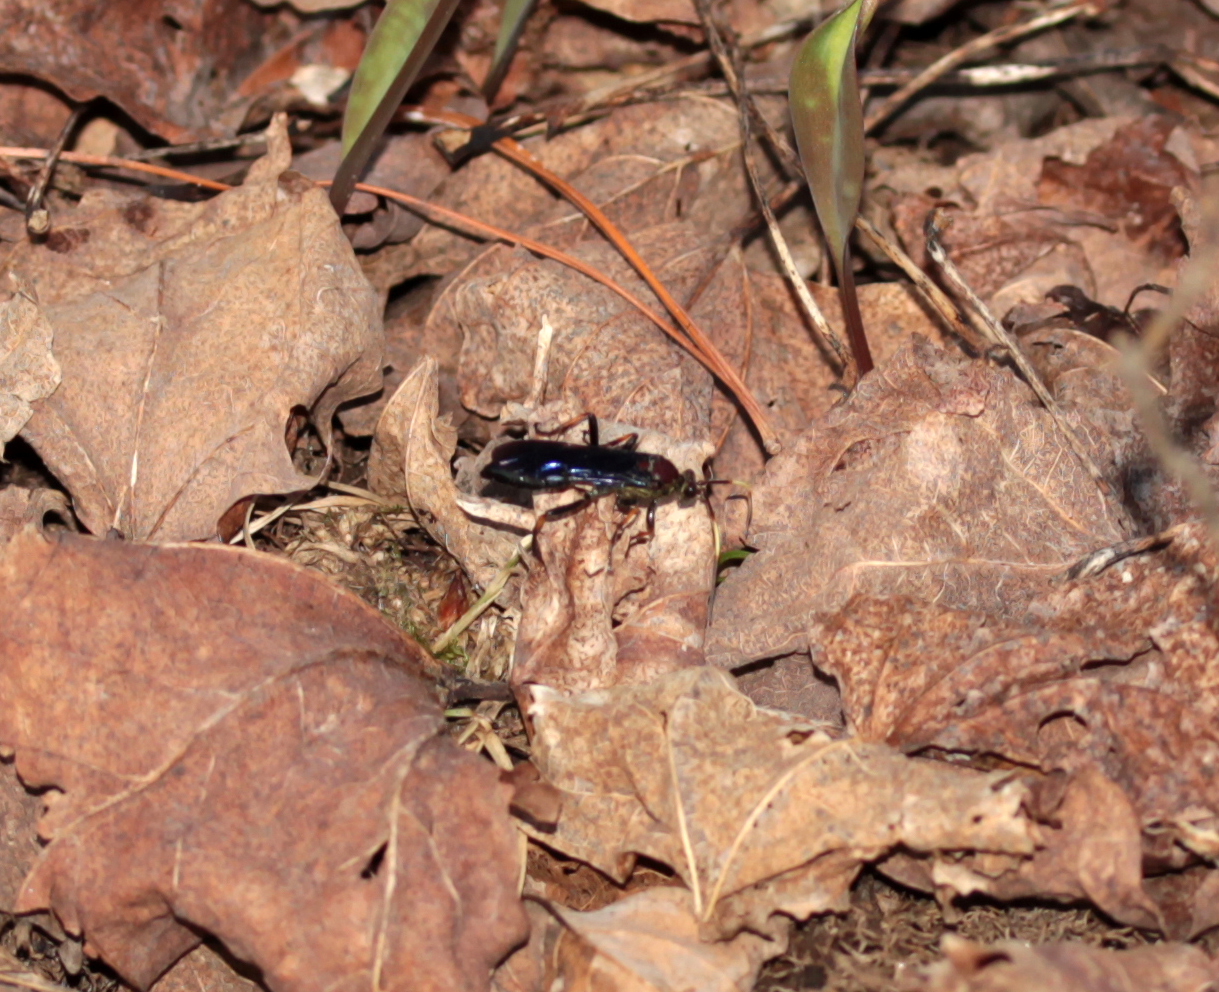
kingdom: Animalia
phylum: Arthropoda
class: Insecta
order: Hymenoptera
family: Ichneumonidae
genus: Ichneumon
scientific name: Ichneumon centrator
